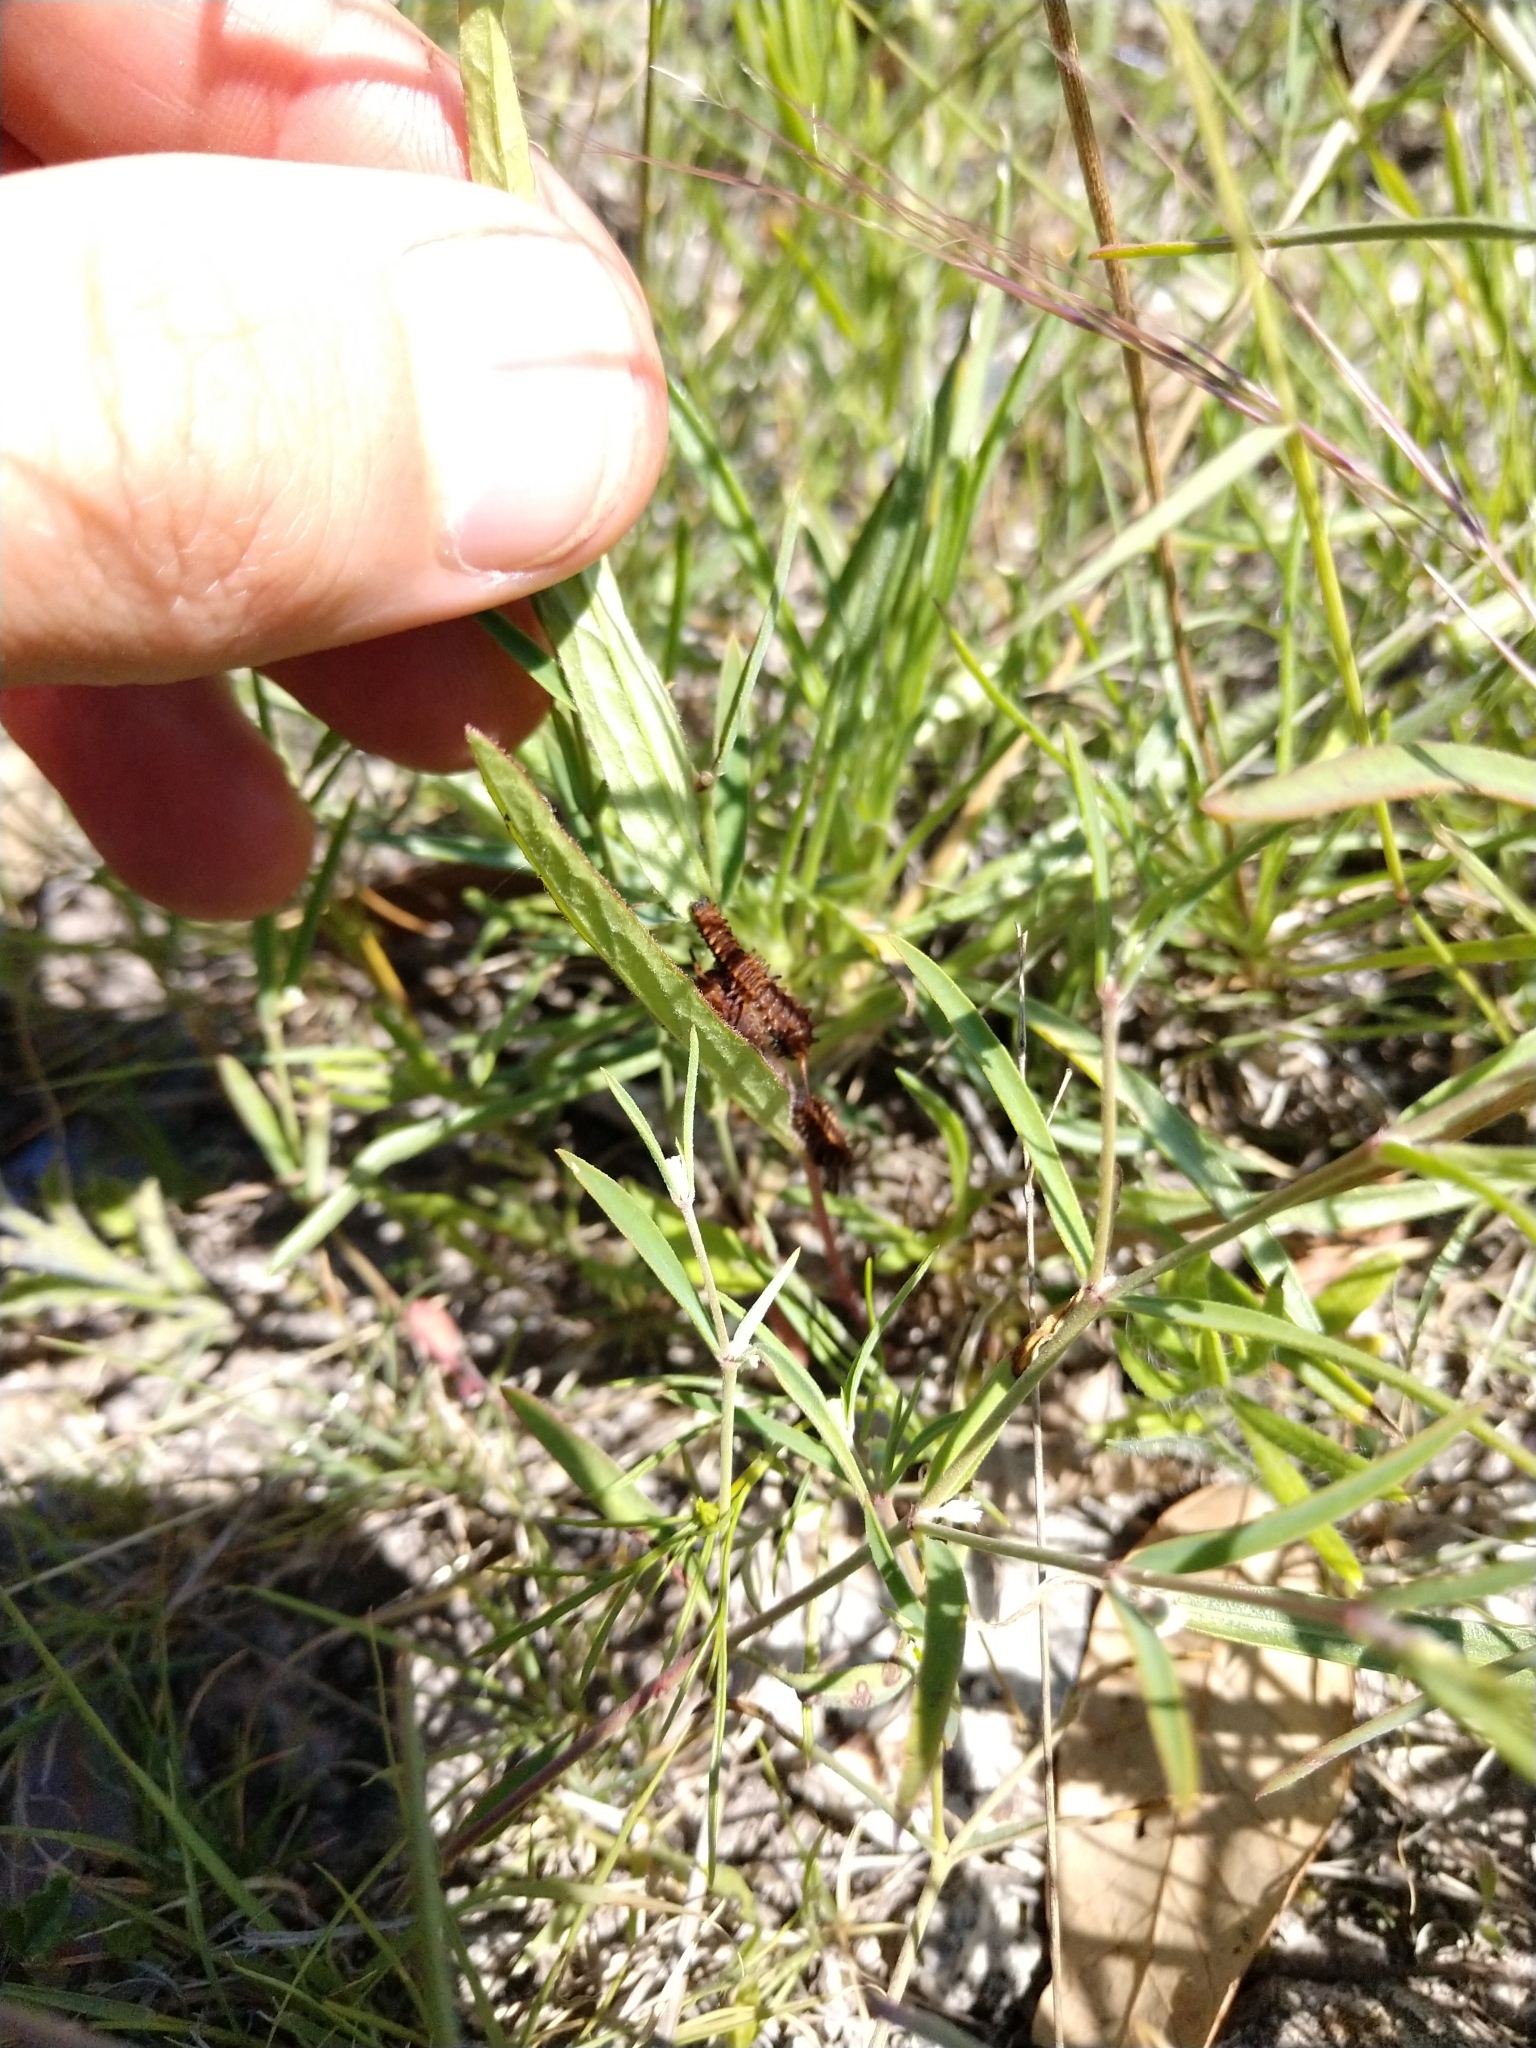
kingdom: Plantae
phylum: Tracheophyta
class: Magnoliopsida
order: Piperales
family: Aristolochiaceae
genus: Aristolochia
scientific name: Aristolochia erecta
